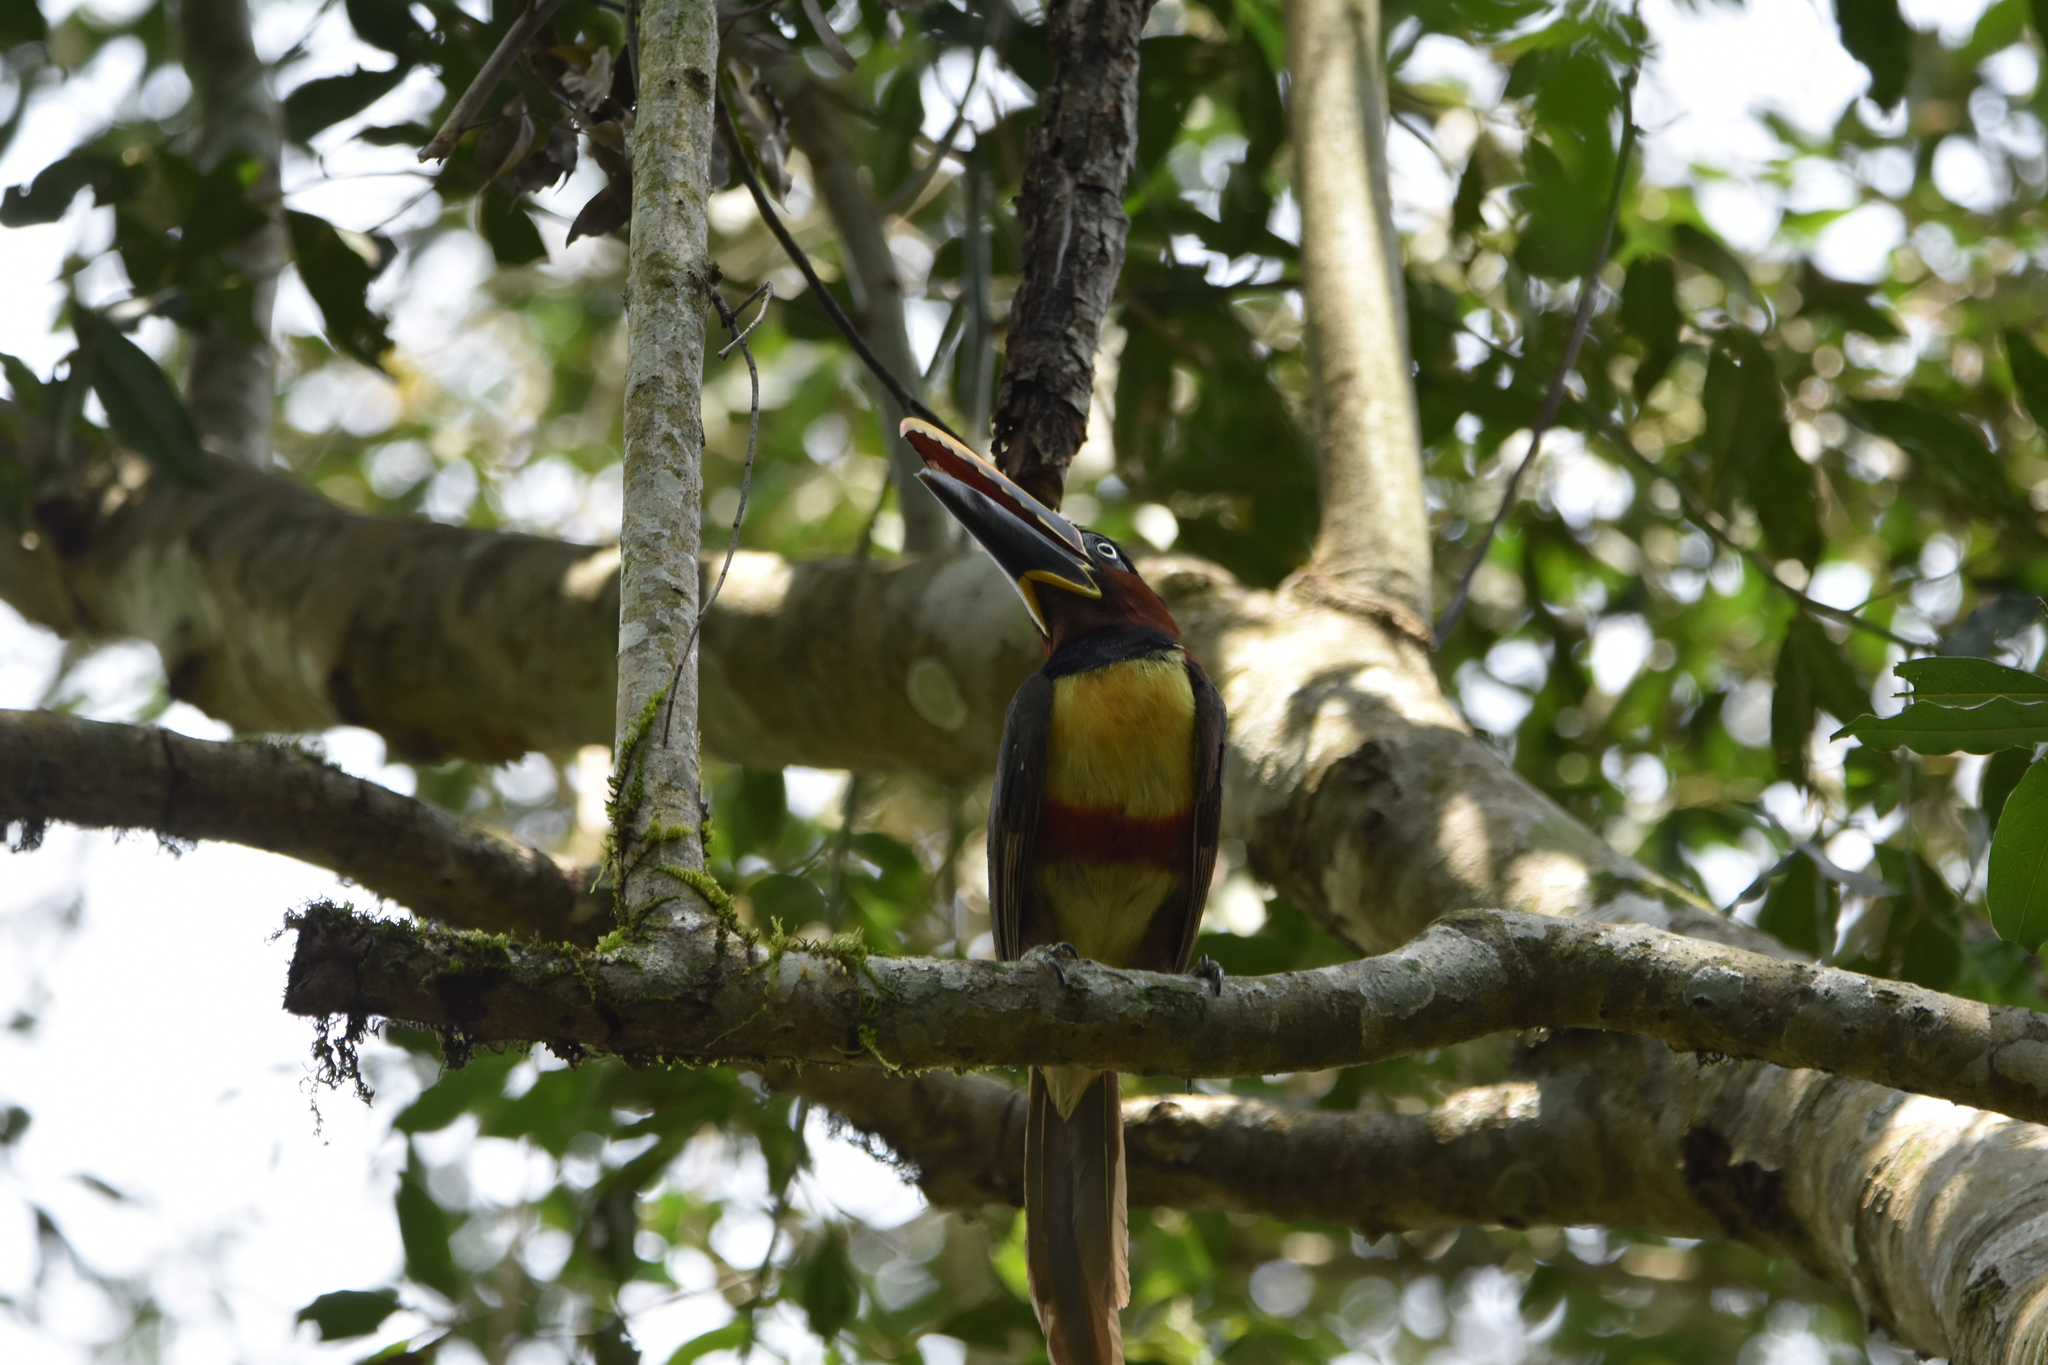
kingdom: Animalia
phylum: Chordata
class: Aves
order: Piciformes
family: Ramphastidae
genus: Pteroglossus
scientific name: Pteroglossus castanotis
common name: Chestnut-eared aracari
